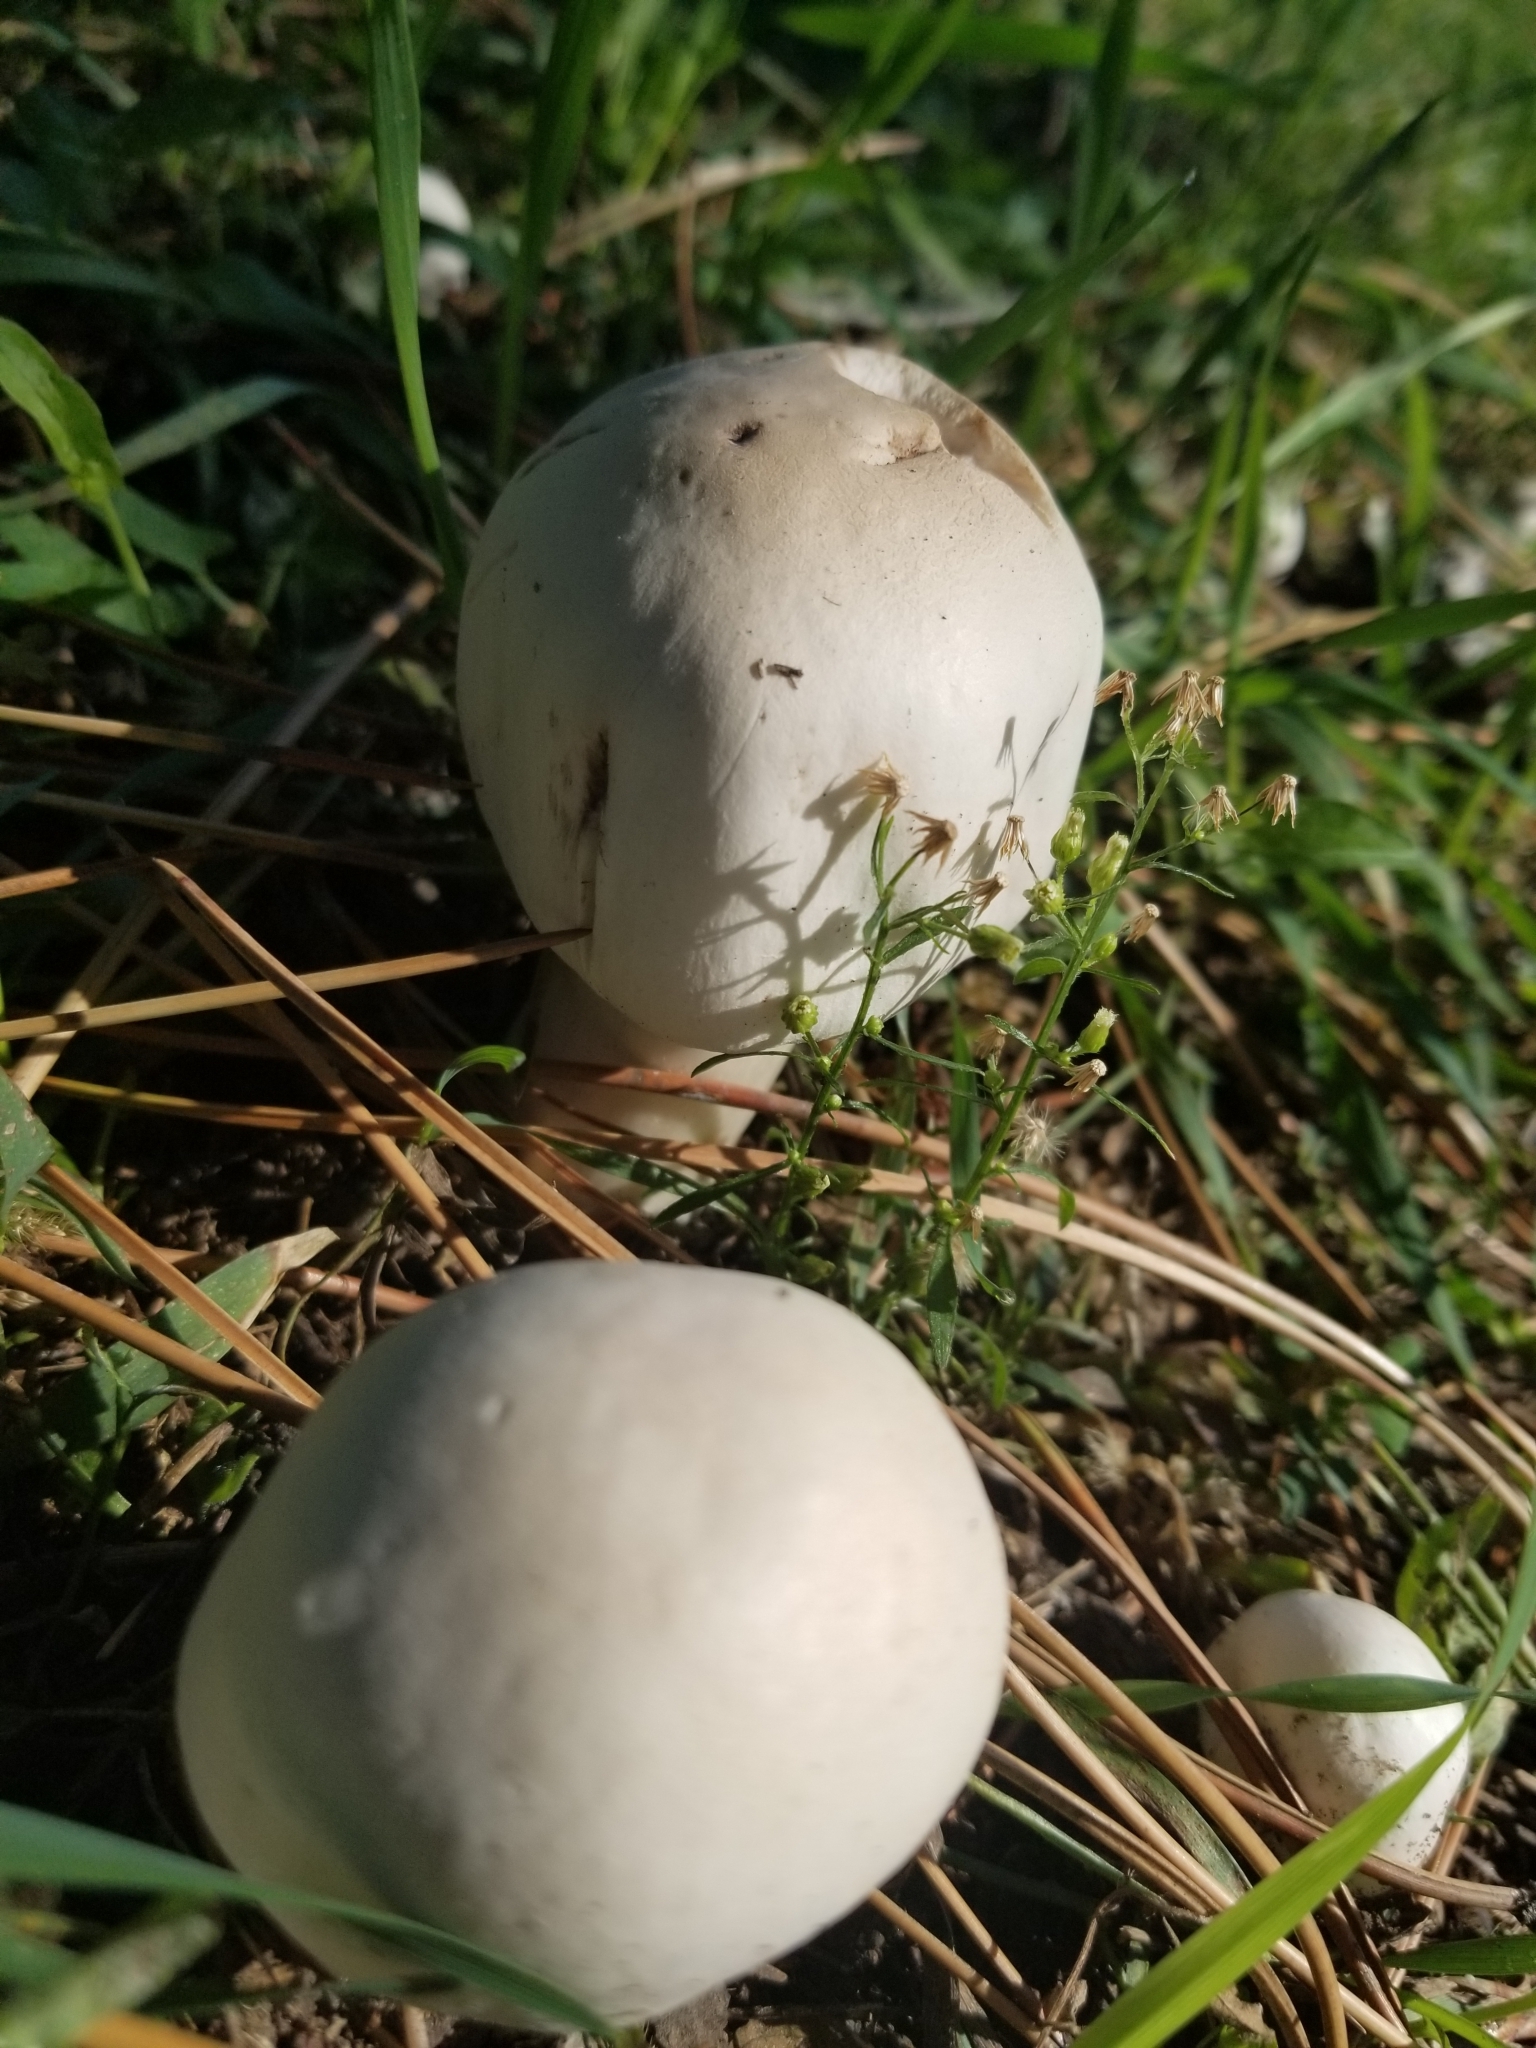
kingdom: Fungi
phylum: Basidiomycota
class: Agaricomycetes
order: Agaricales
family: Agaricaceae
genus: Leucoagaricus
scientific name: Leucoagaricus leucothites
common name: White dapperling
